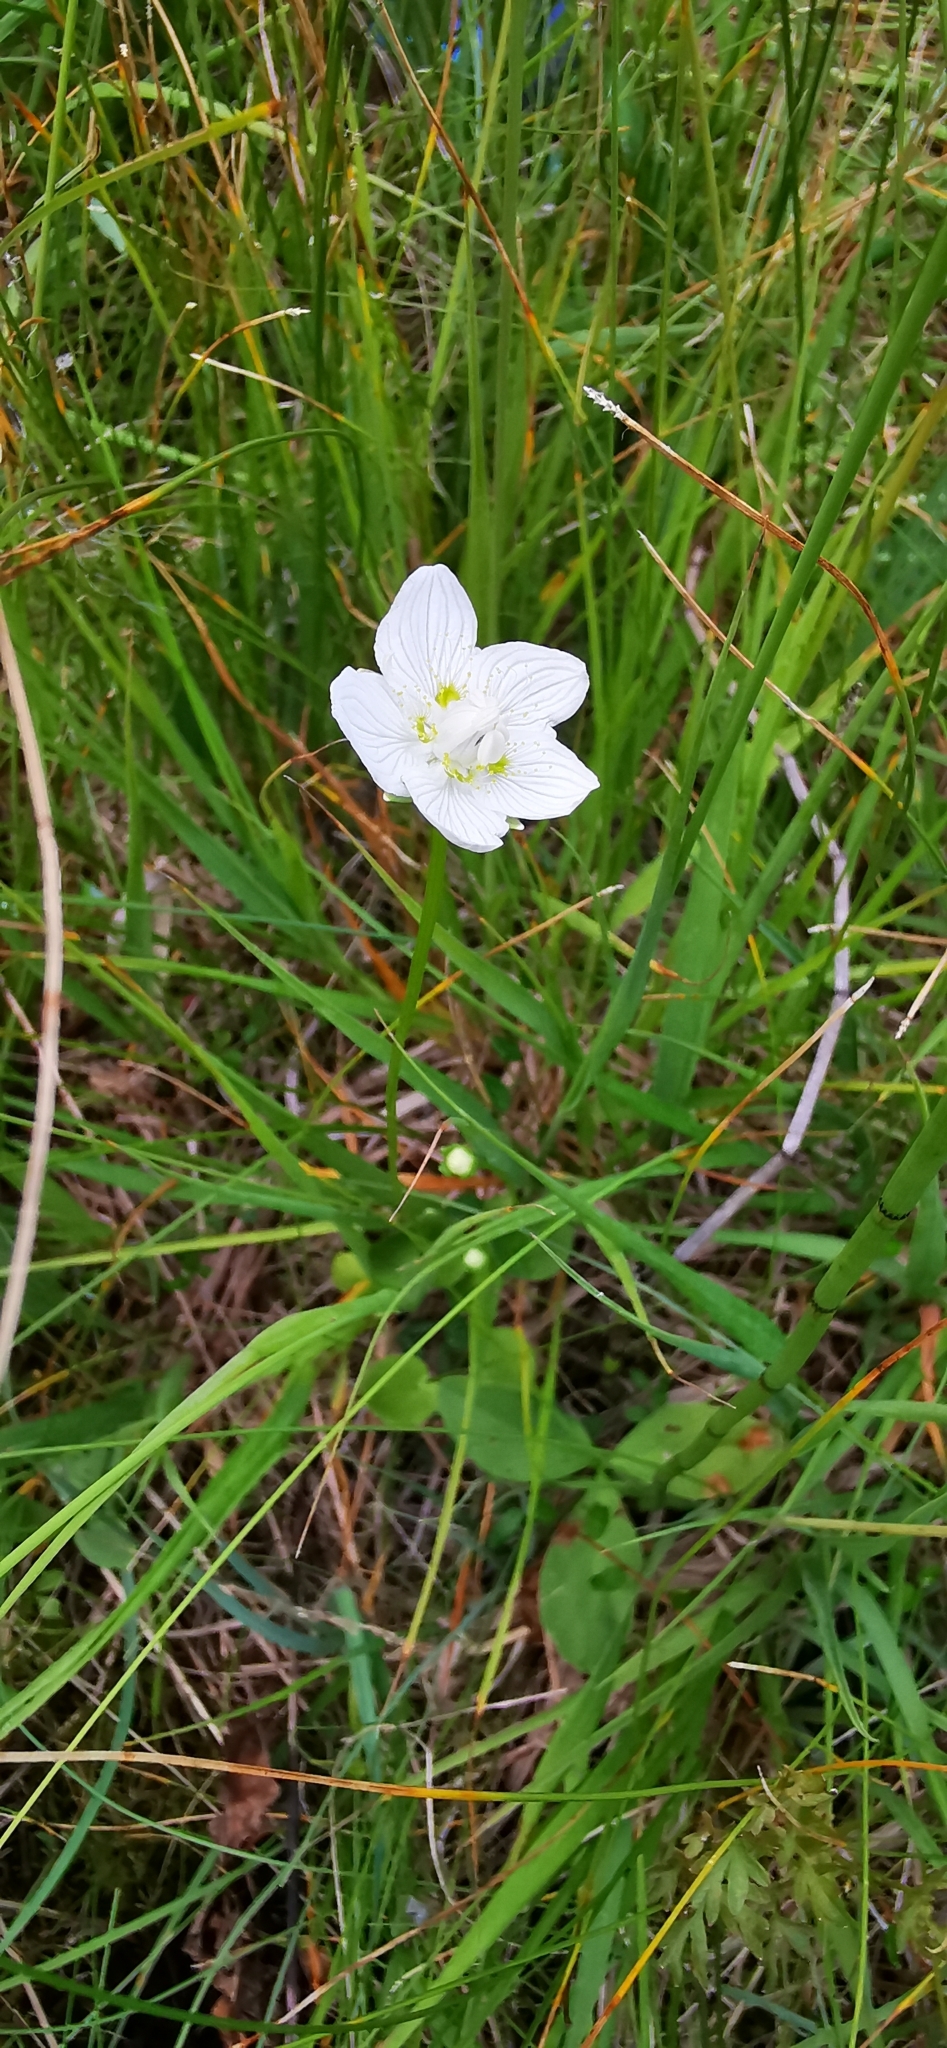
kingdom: Plantae
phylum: Tracheophyta
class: Magnoliopsida
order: Celastrales
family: Parnassiaceae
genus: Parnassia
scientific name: Parnassia palustris
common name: Grass-of-parnassus
